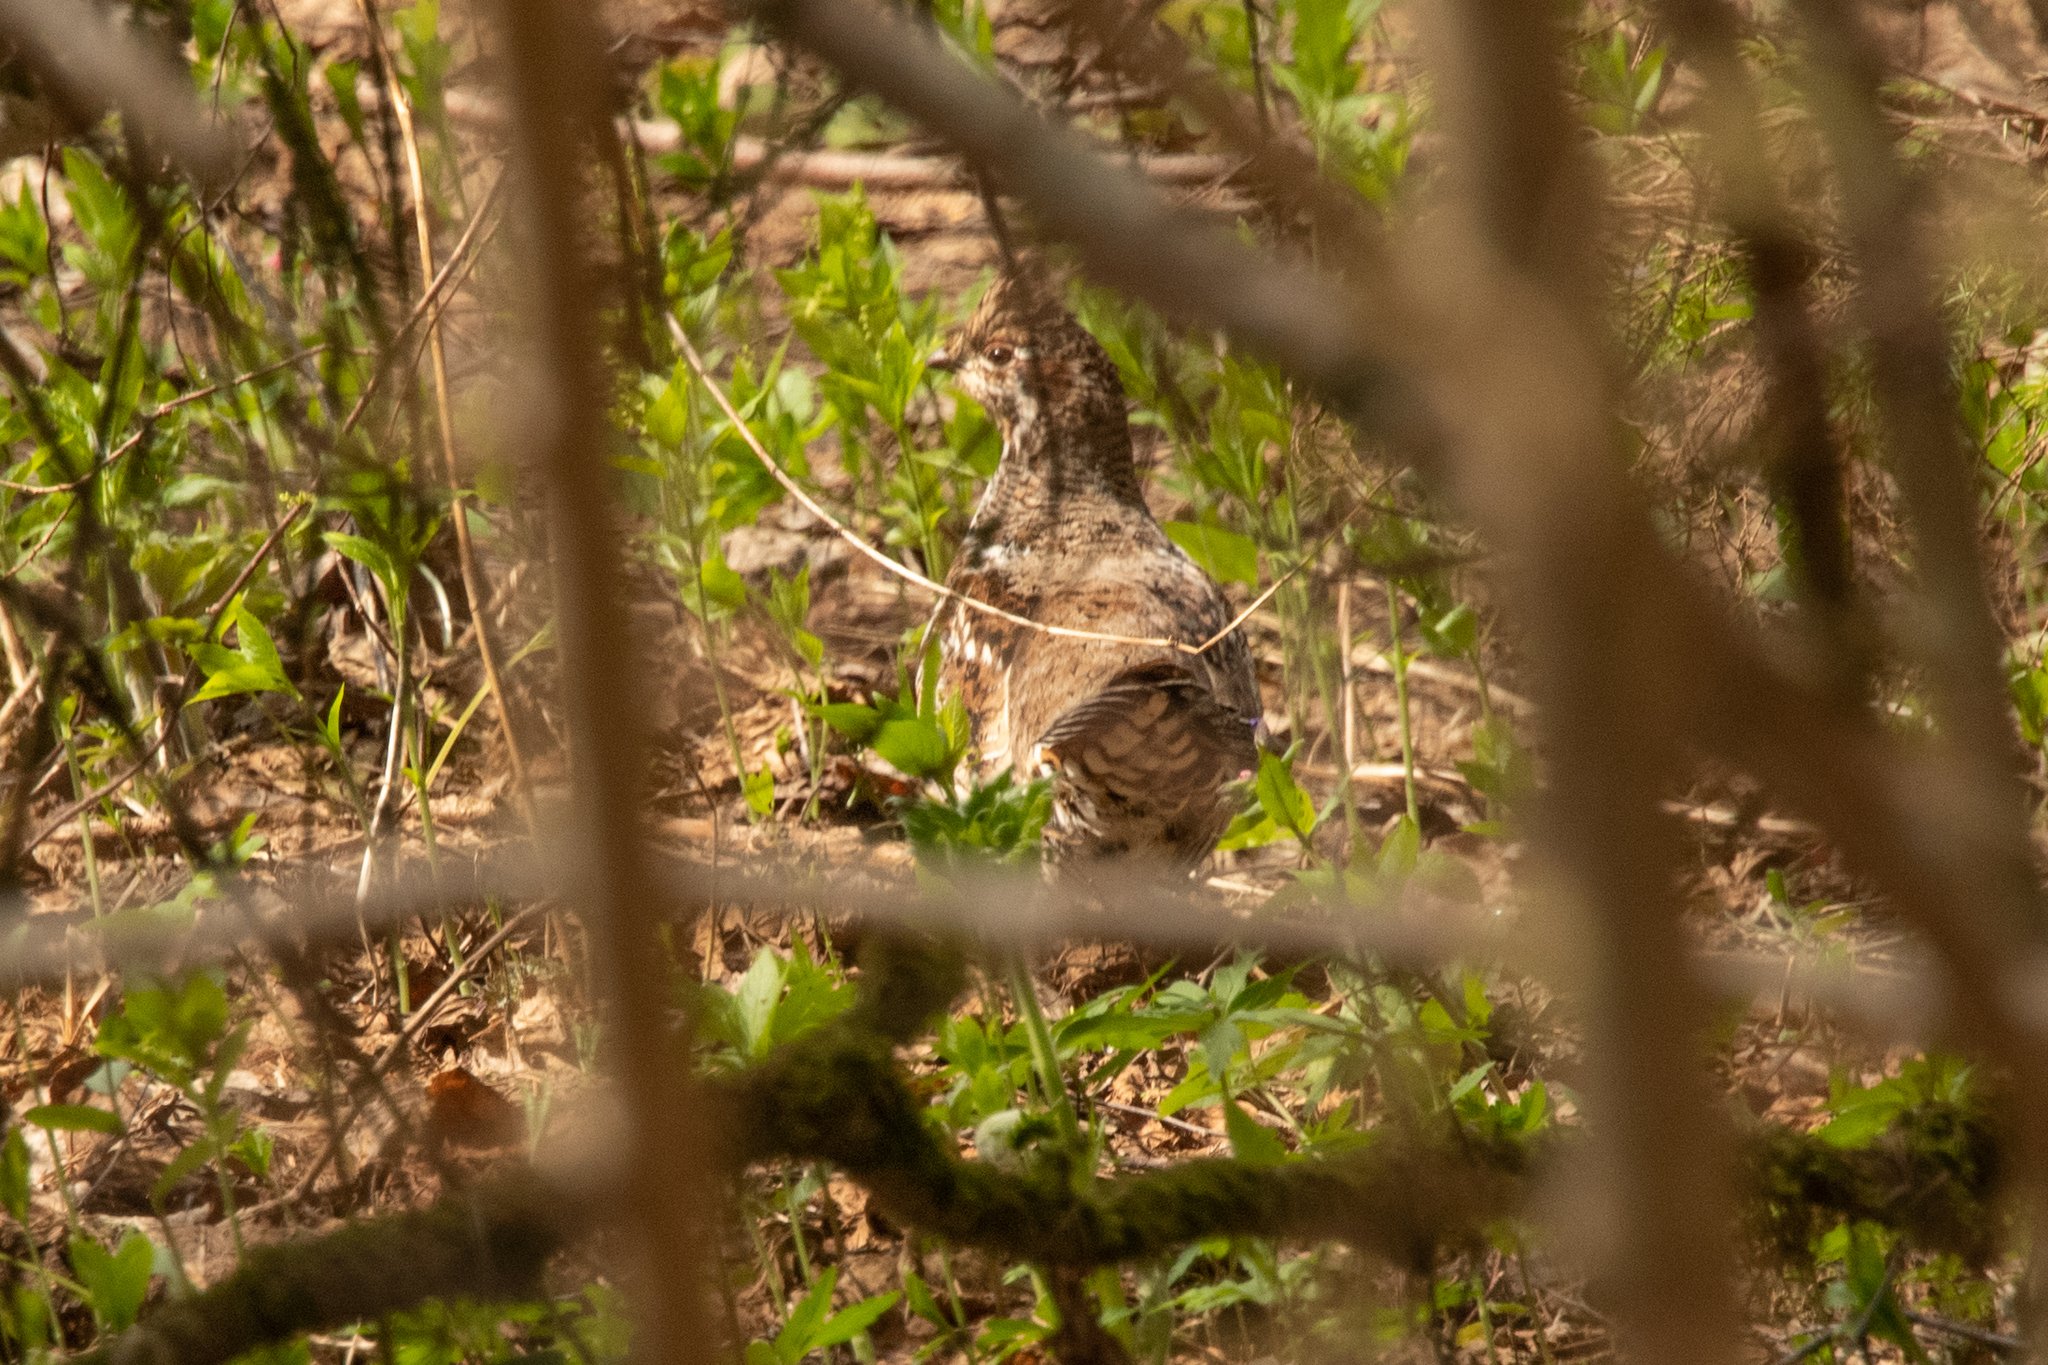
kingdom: Animalia
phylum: Chordata
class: Aves
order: Galliformes
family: Phasianidae
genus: Tetrastes
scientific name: Tetrastes bonasia
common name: Hazel grouse
